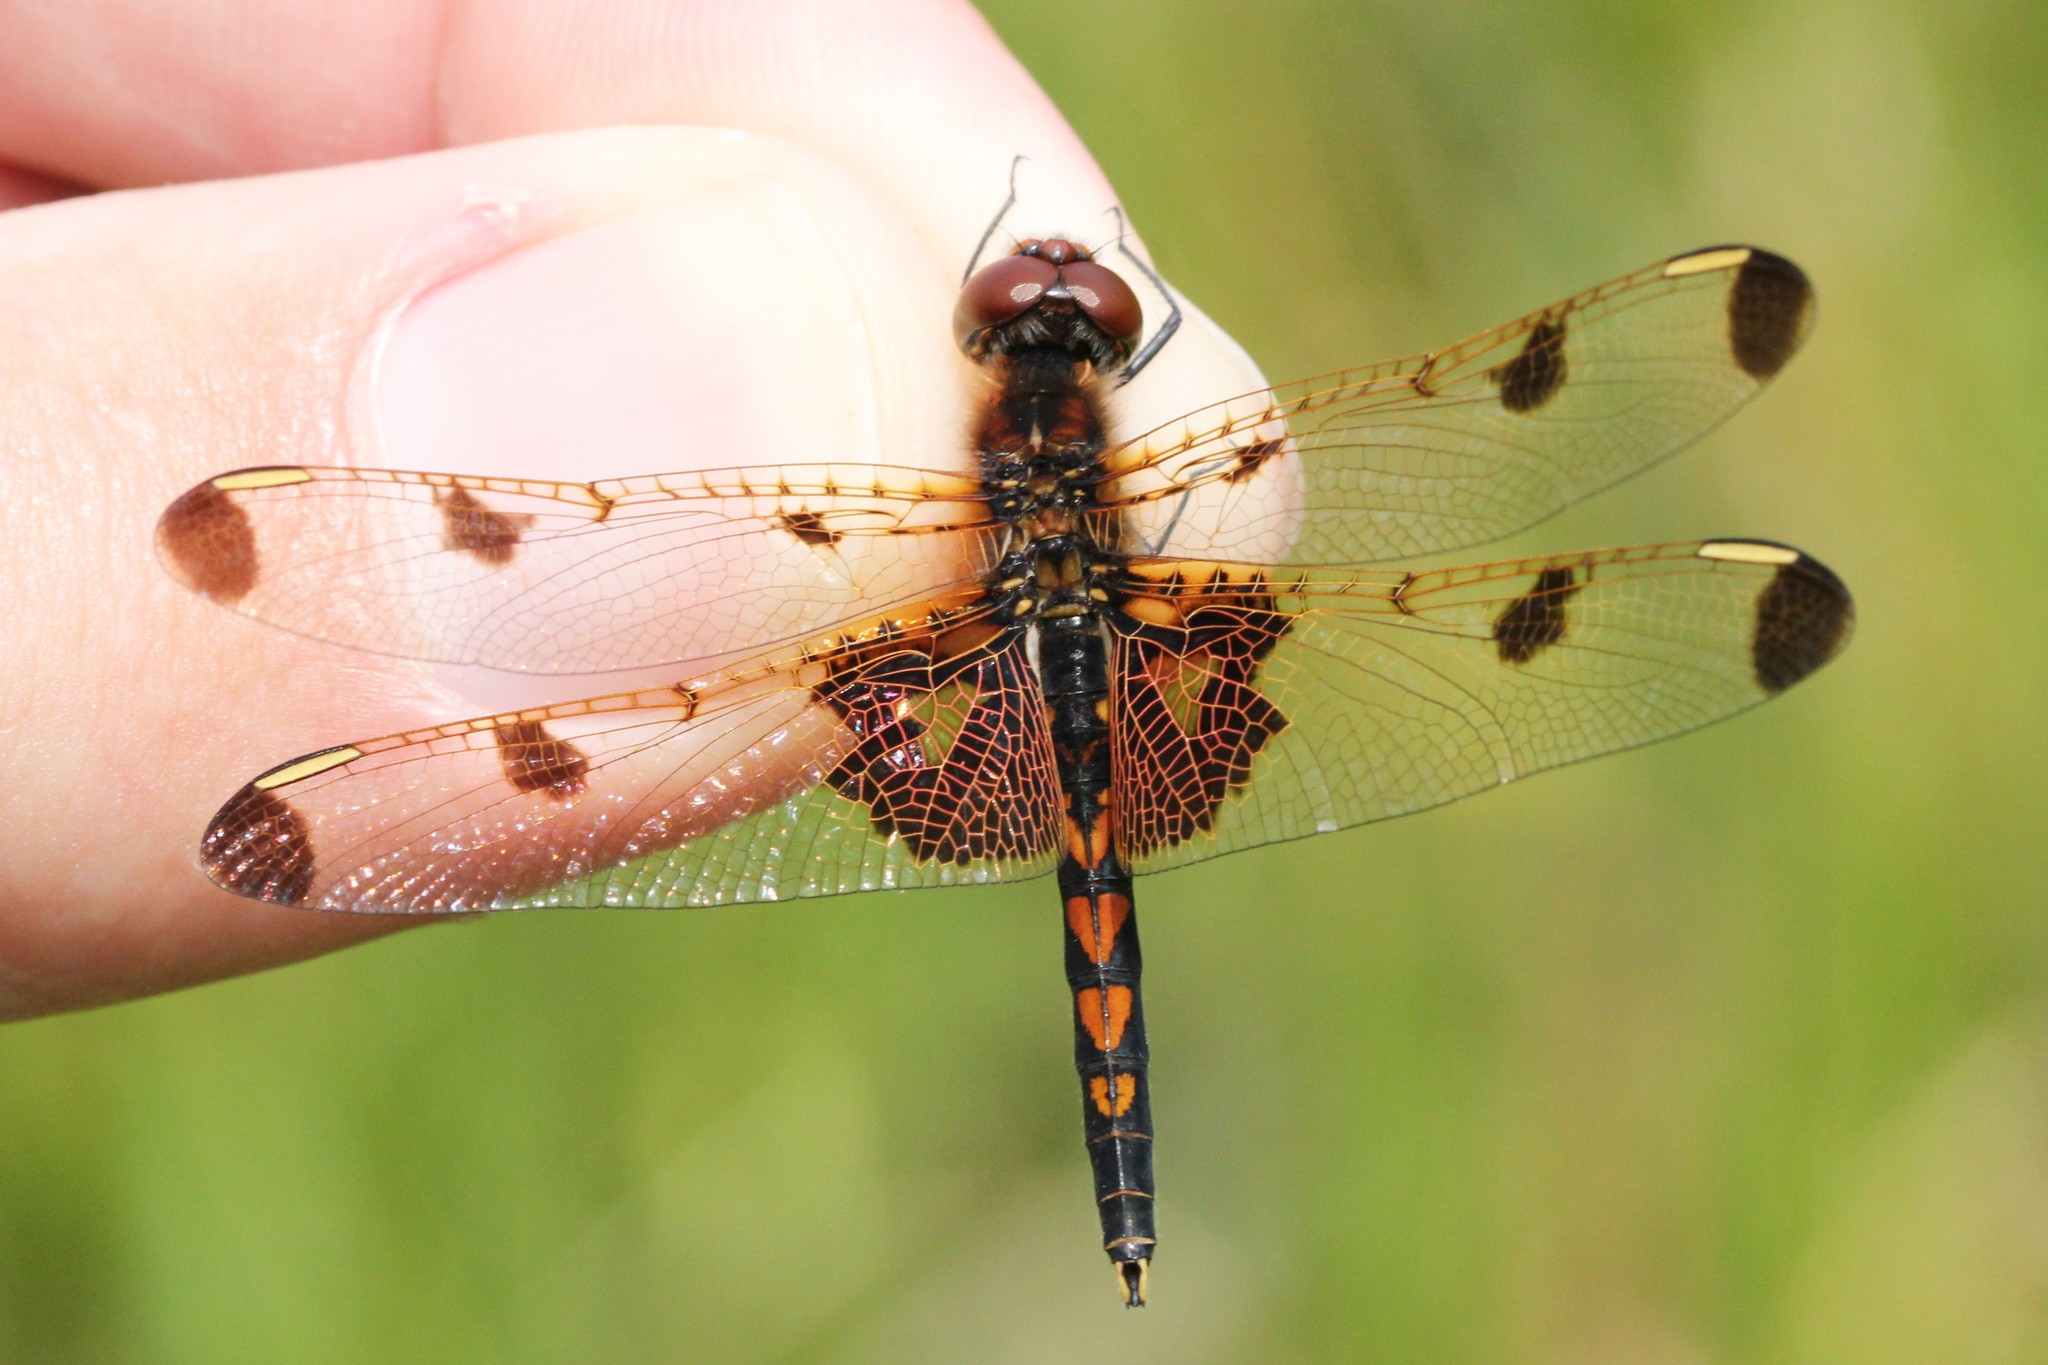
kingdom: Animalia
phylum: Arthropoda
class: Insecta
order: Odonata
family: Libellulidae
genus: Celithemis
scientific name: Celithemis elisa
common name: Calico pennant
